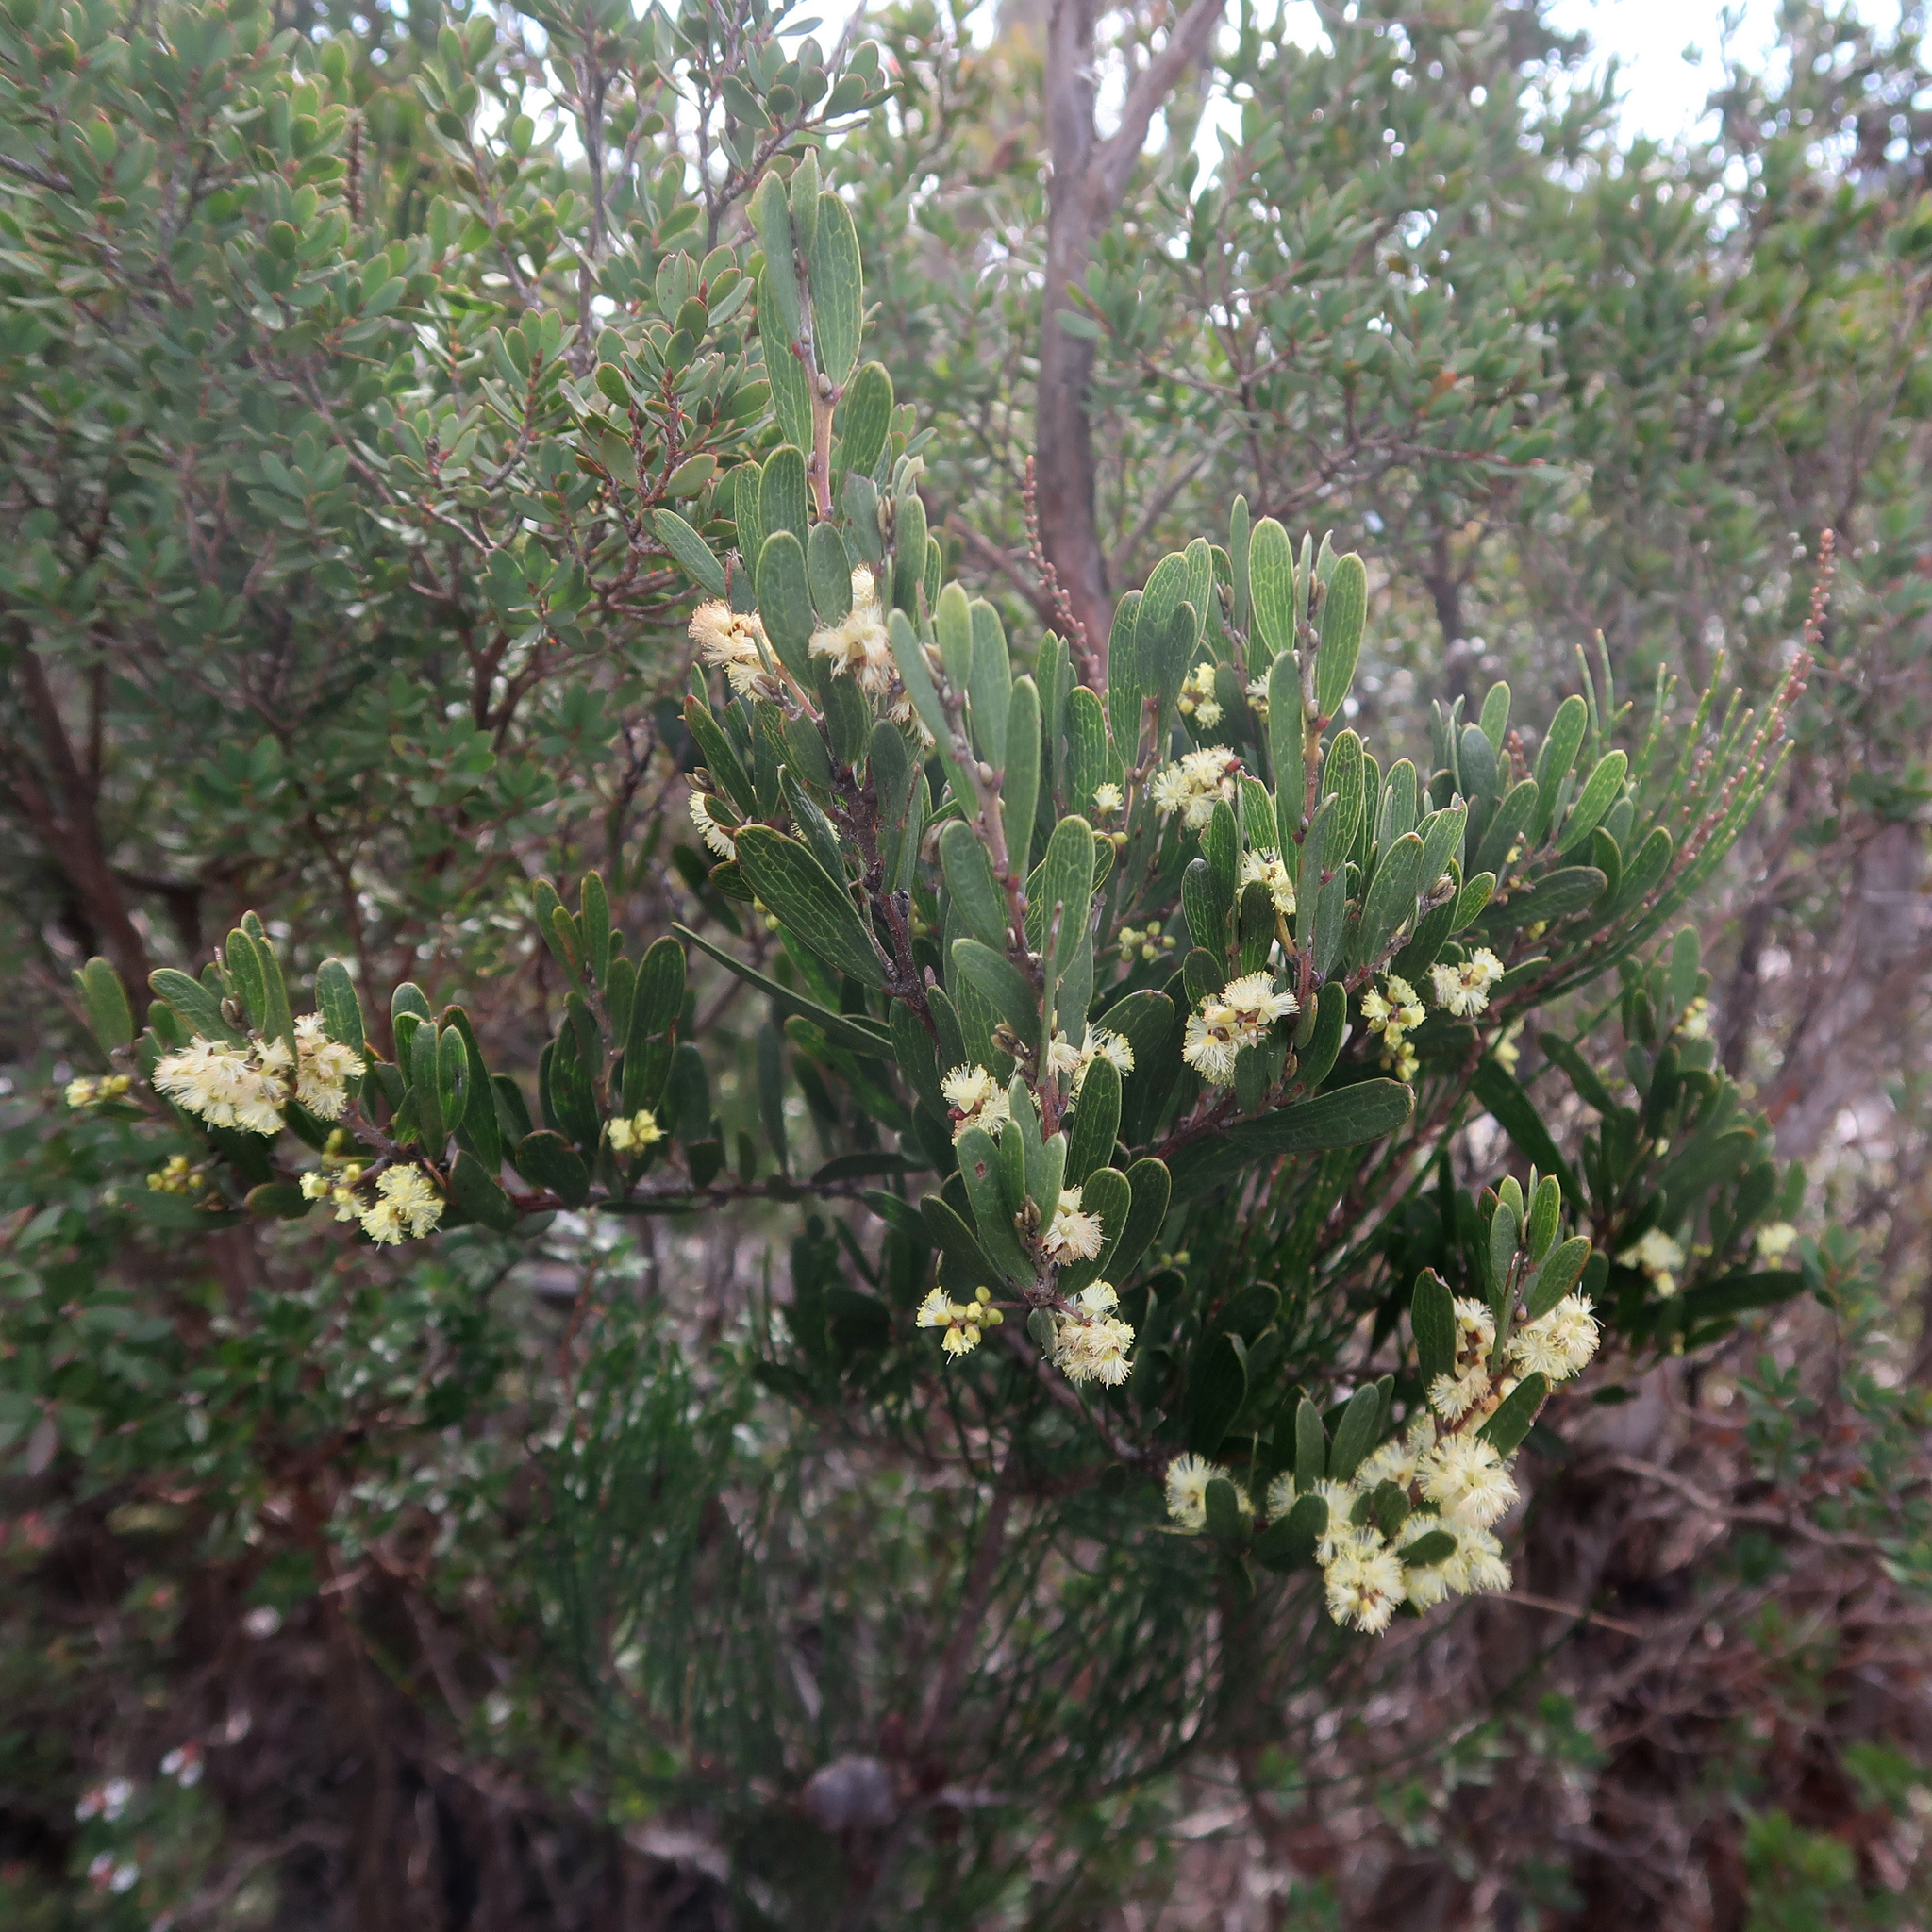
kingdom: Plantae
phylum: Tracheophyta
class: Magnoliopsida
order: Fabales
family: Fabaceae
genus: Acacia
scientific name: Acacia mucronata
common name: Variable sallow wattle
